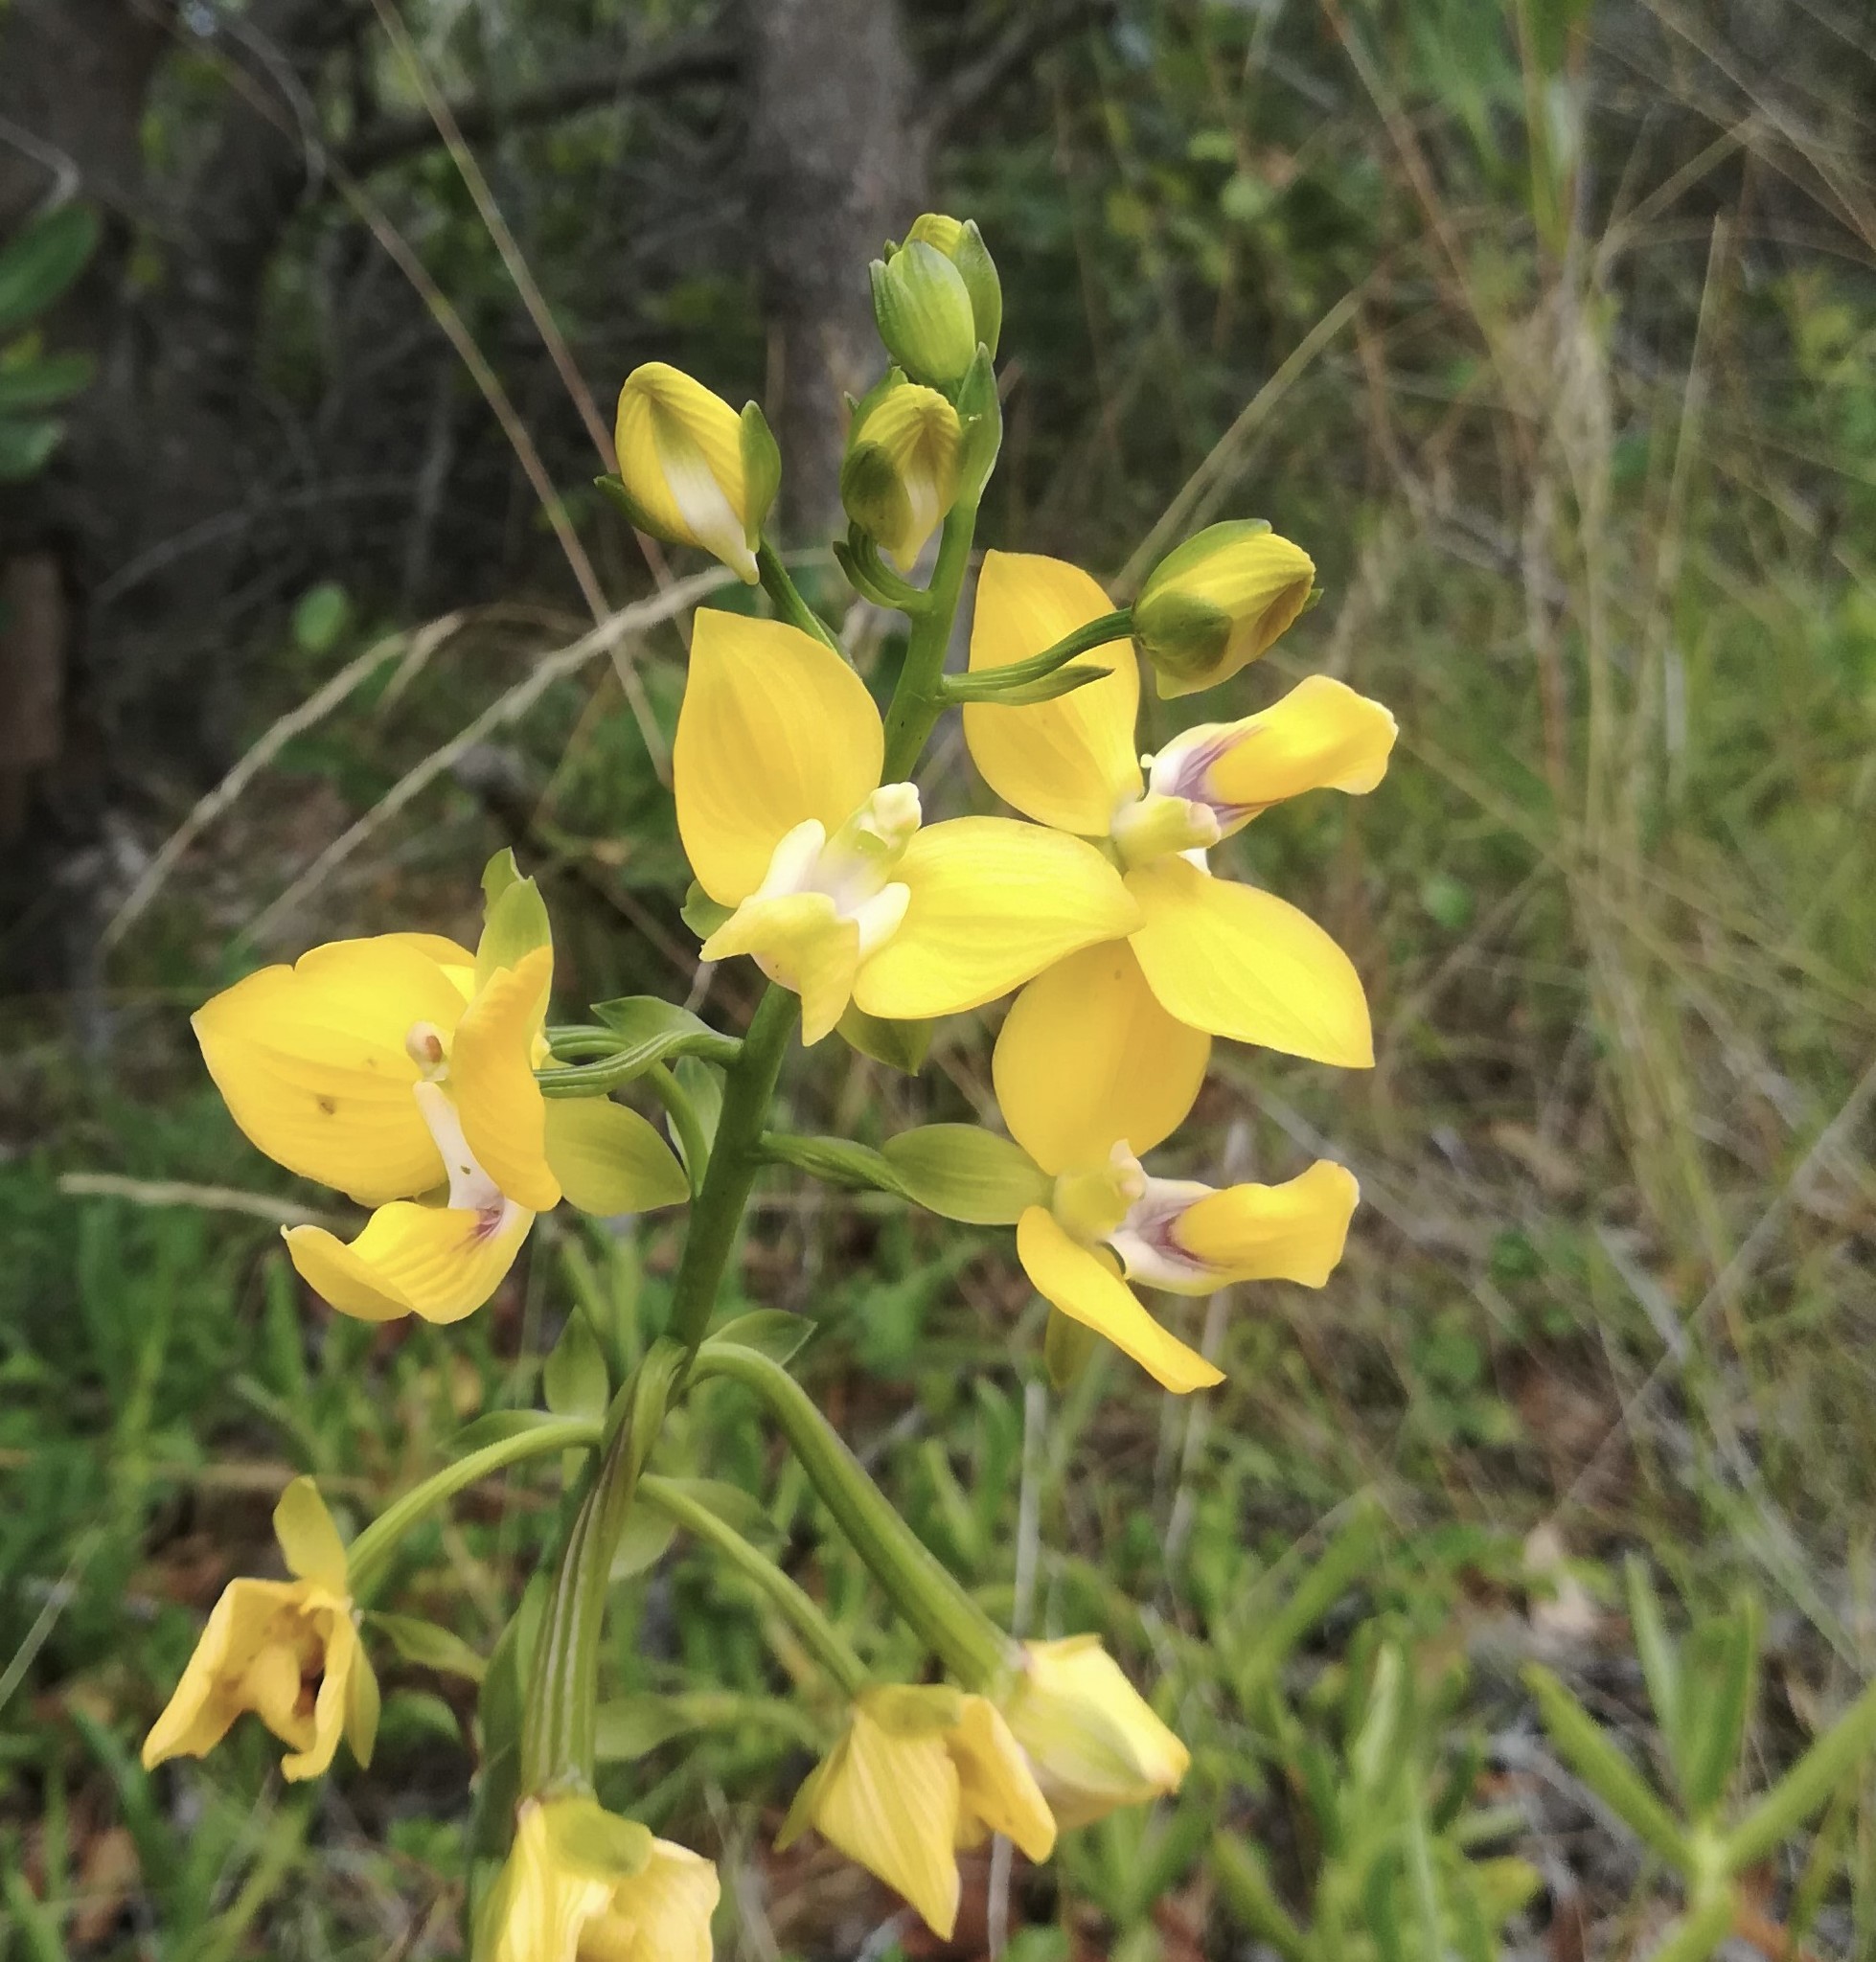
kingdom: Plantae
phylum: Tracheophyta
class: Liliopsida
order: Asparagales
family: Orchidaceae
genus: Eulophia
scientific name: Eulophia speciosa
